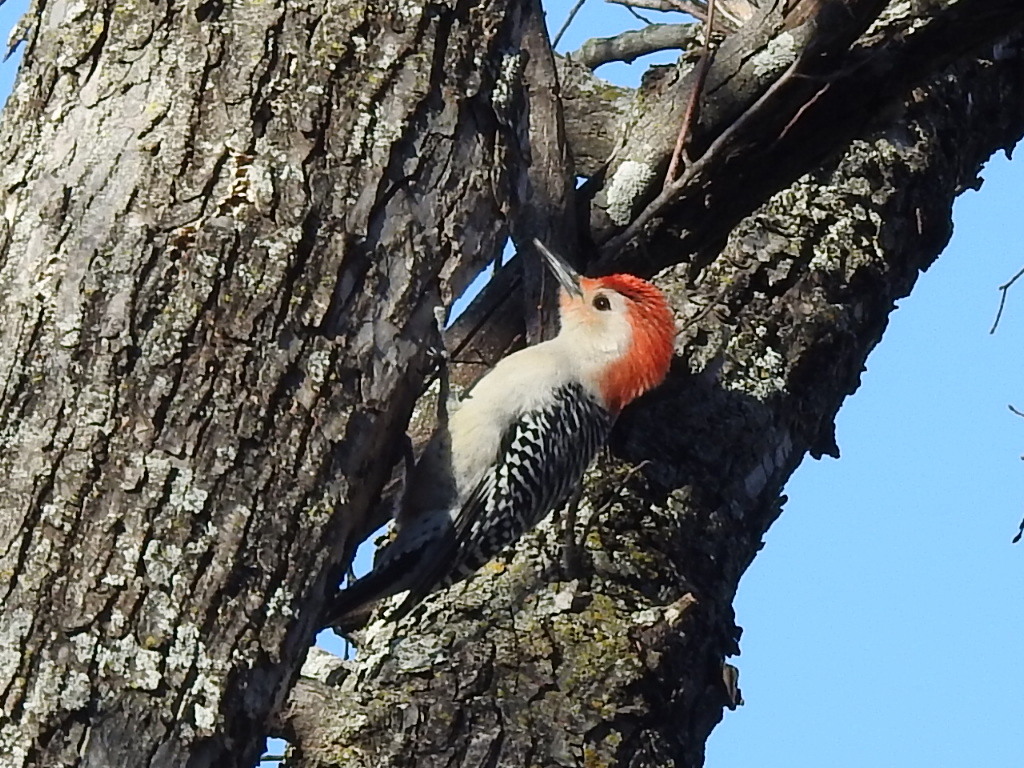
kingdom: Animalia
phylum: Chordata
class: Aves
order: Piciformes
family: Picidae
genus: Melanerpes
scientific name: Melanerpes carolinus
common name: Red-bellied woodpecker
